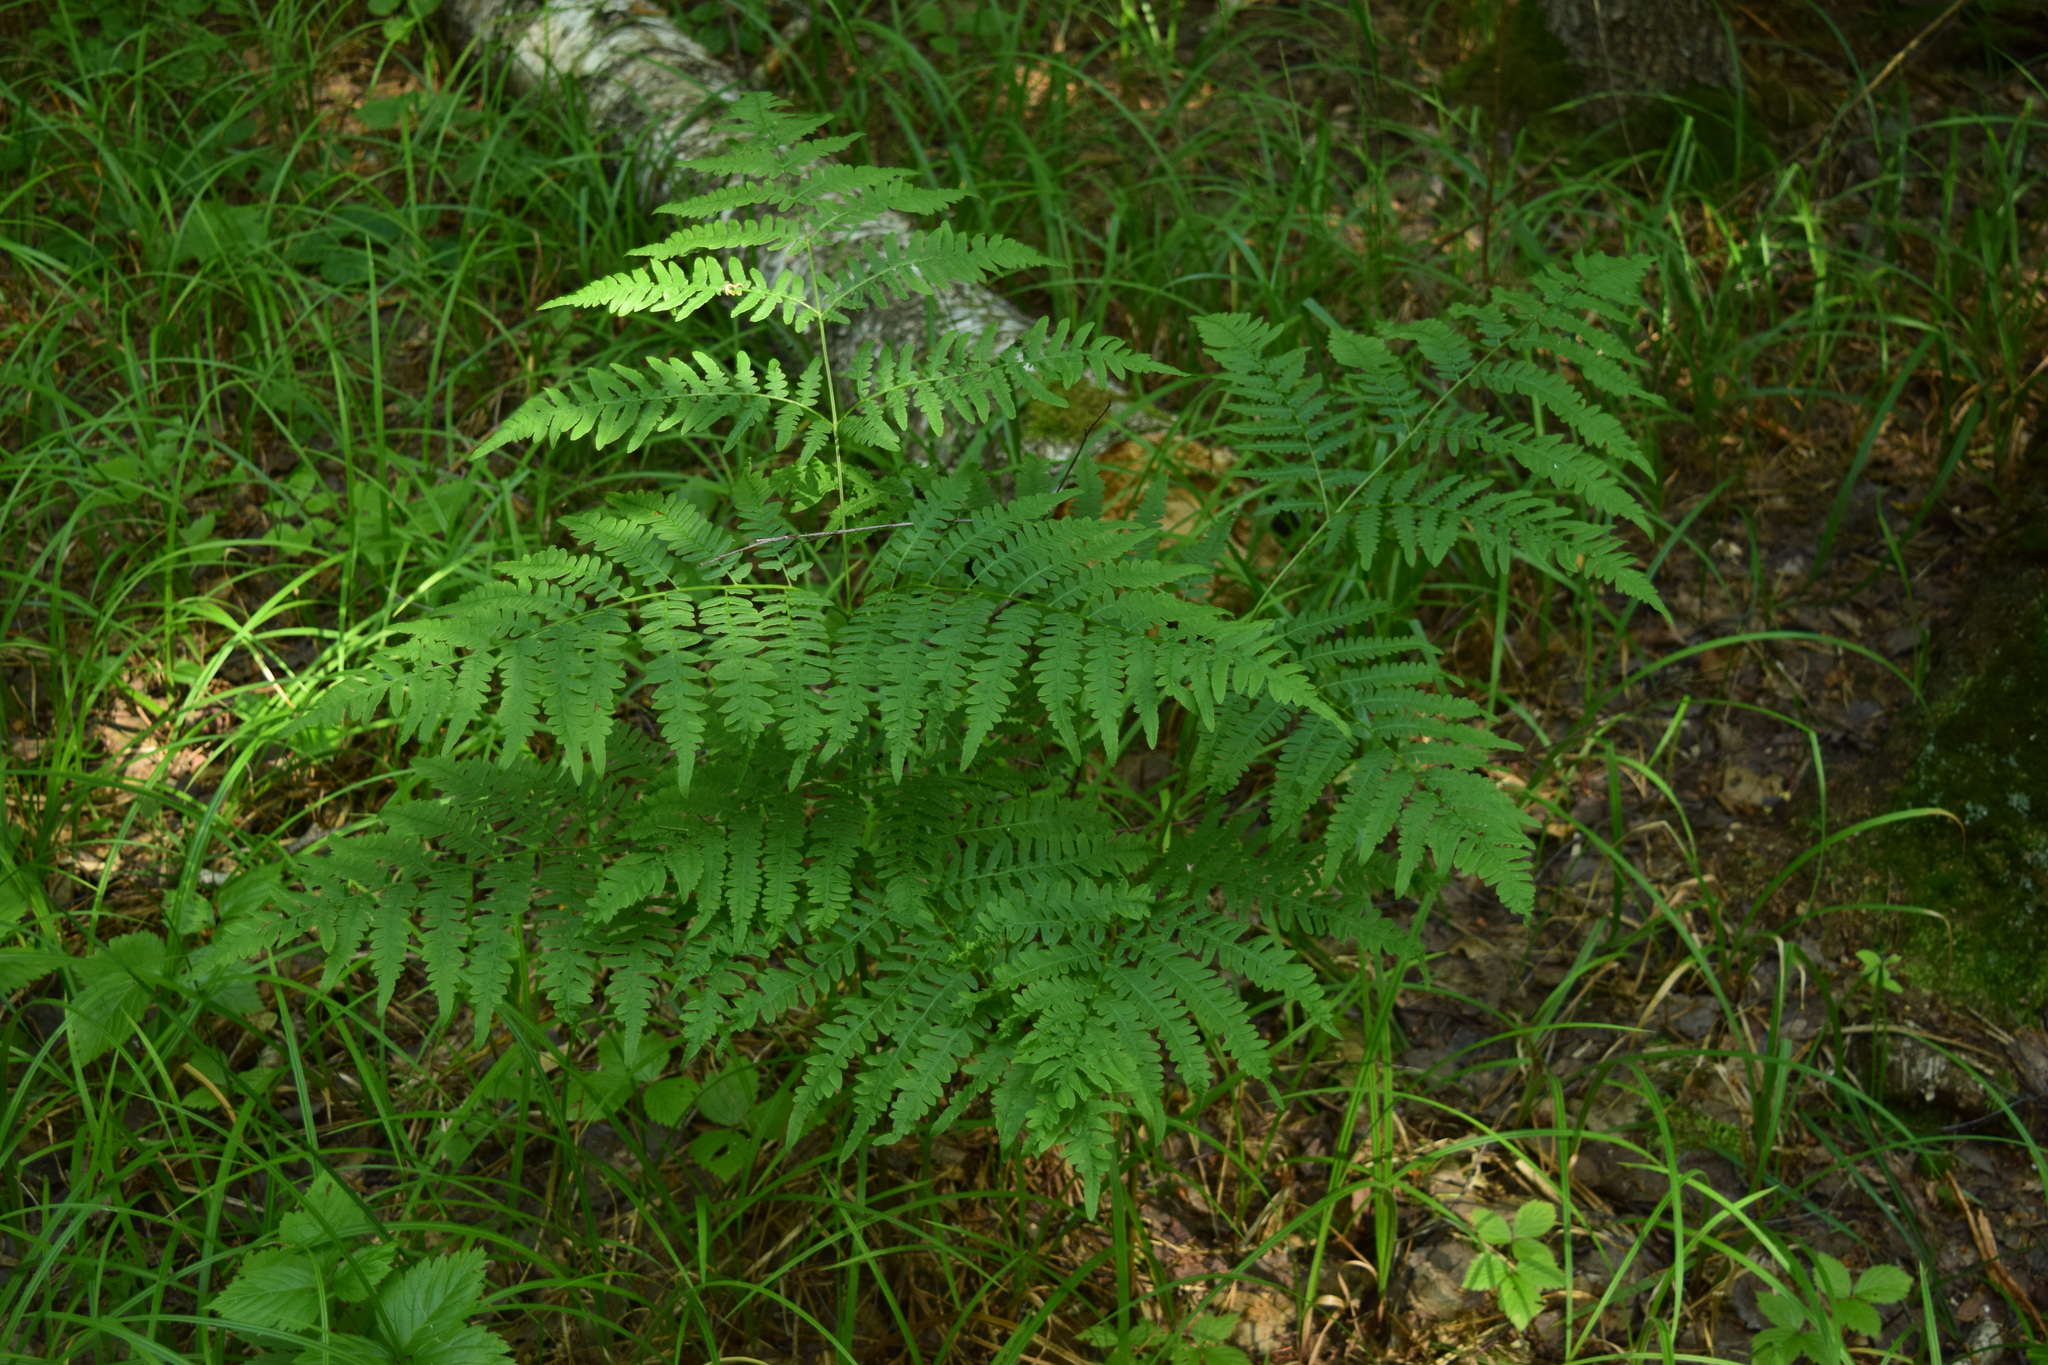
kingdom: Plantae
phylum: Tracheophyta
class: Polypodiopsida
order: Polypodiales
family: Dennstaedtiaceae
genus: Pteridium
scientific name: Pteridium aquilinum
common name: Bracken
